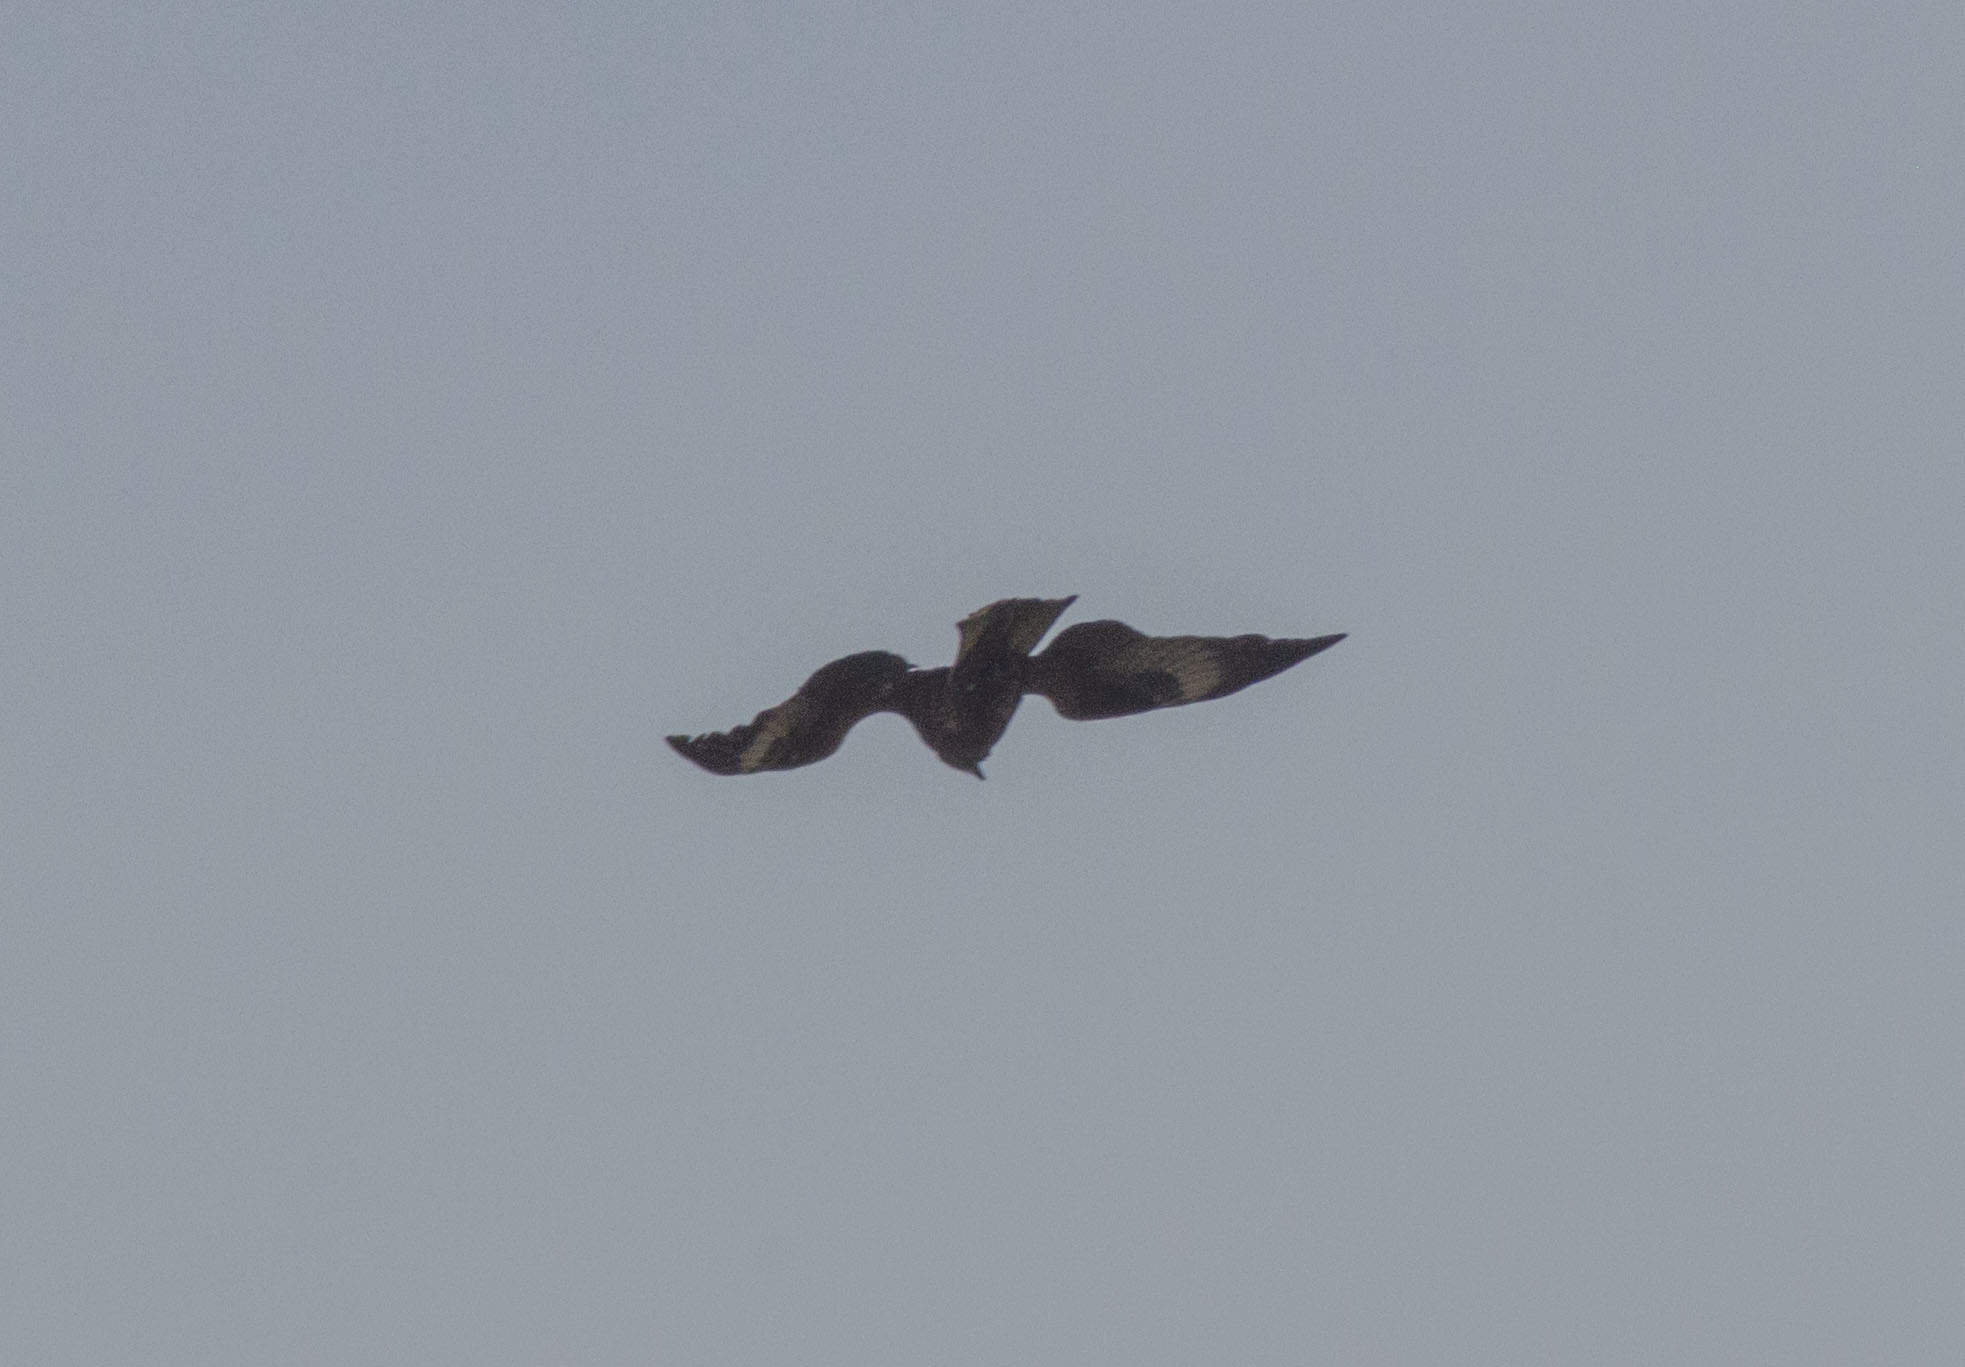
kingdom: Animalia
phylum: Chordata
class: Aves
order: Accipitriformes
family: Accipitridae
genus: Milvus
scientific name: Milvus migrans
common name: Black kite
